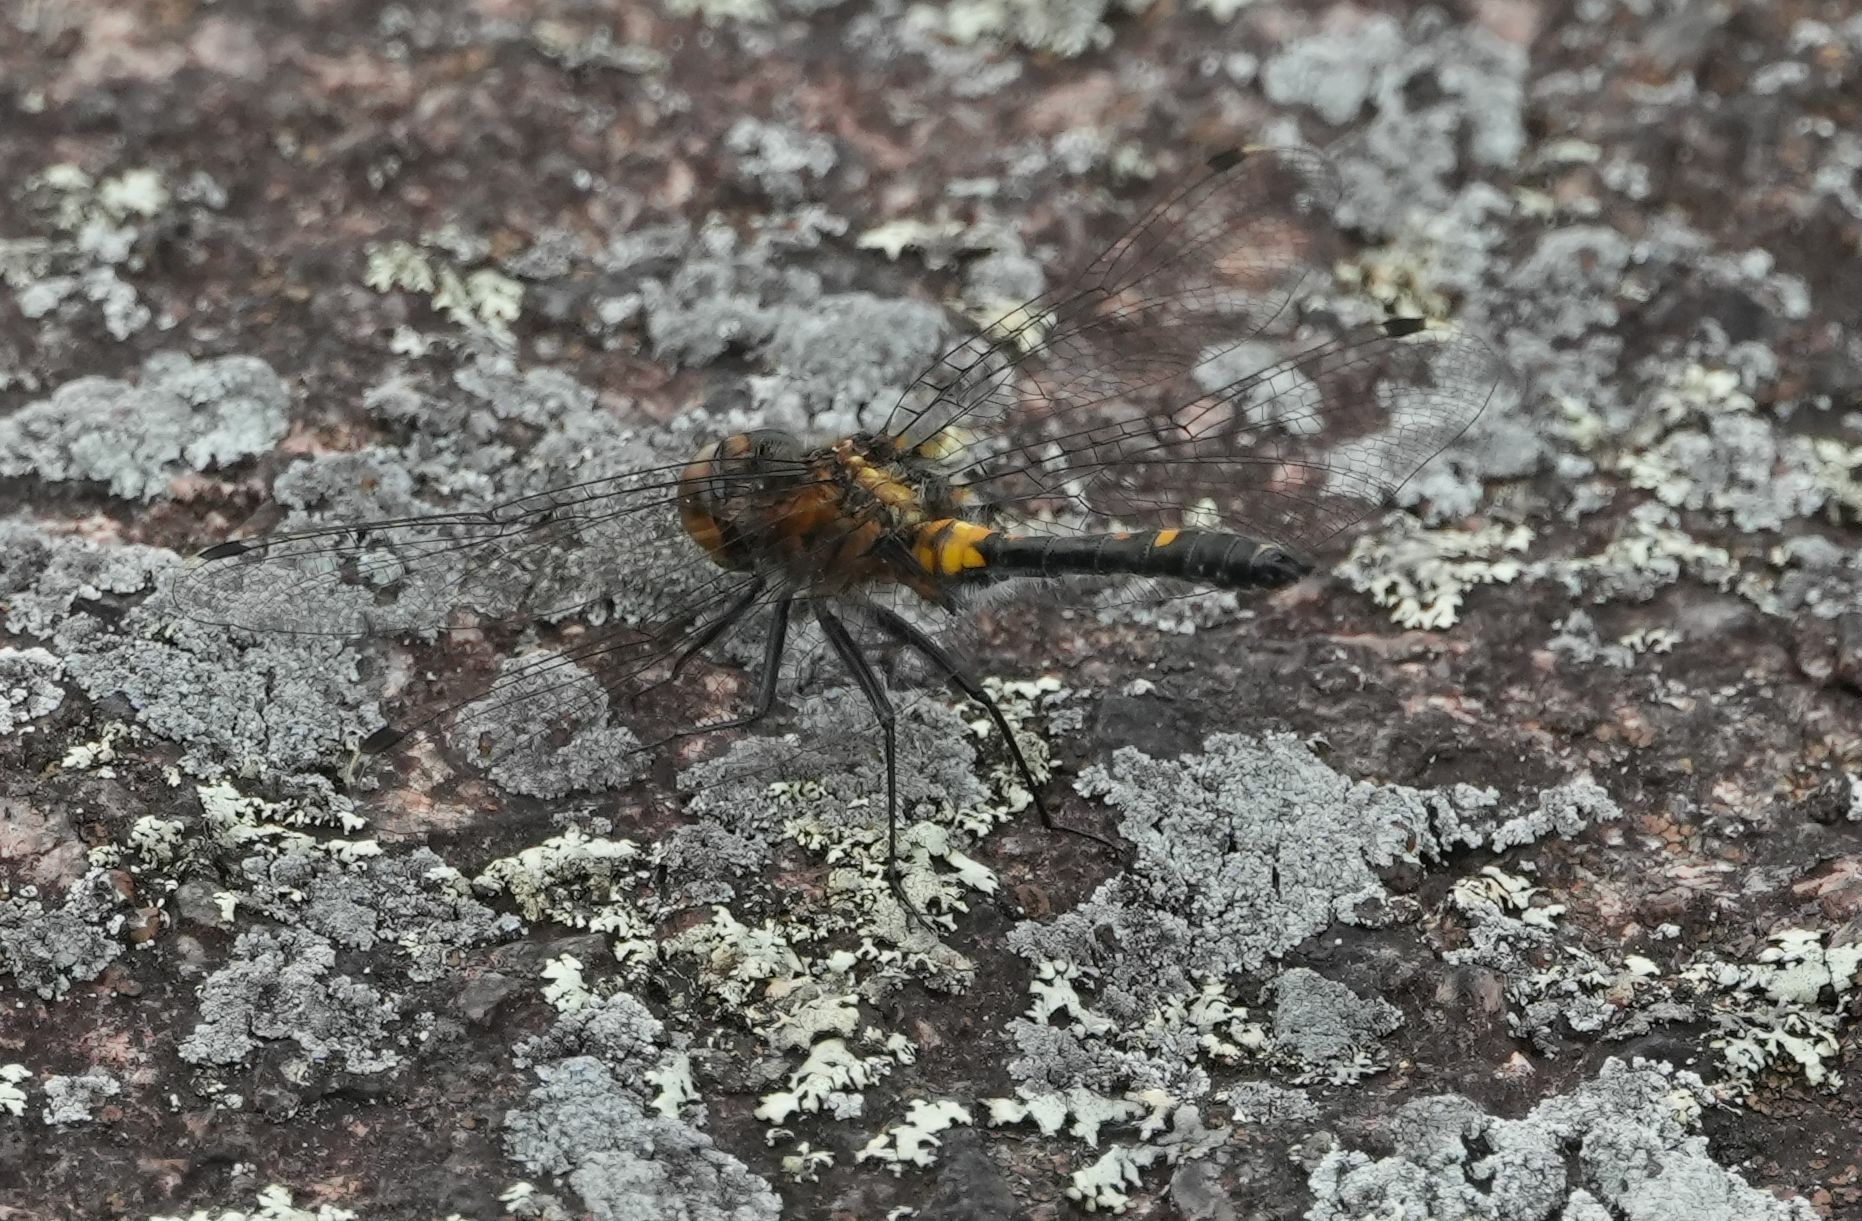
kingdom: Animalia
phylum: Arthropoda
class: Insecta
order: Odonata
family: Libellulidae
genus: Leucorrhinia
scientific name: Leucorrhinia intacta
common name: Dot-tailed whiteface
